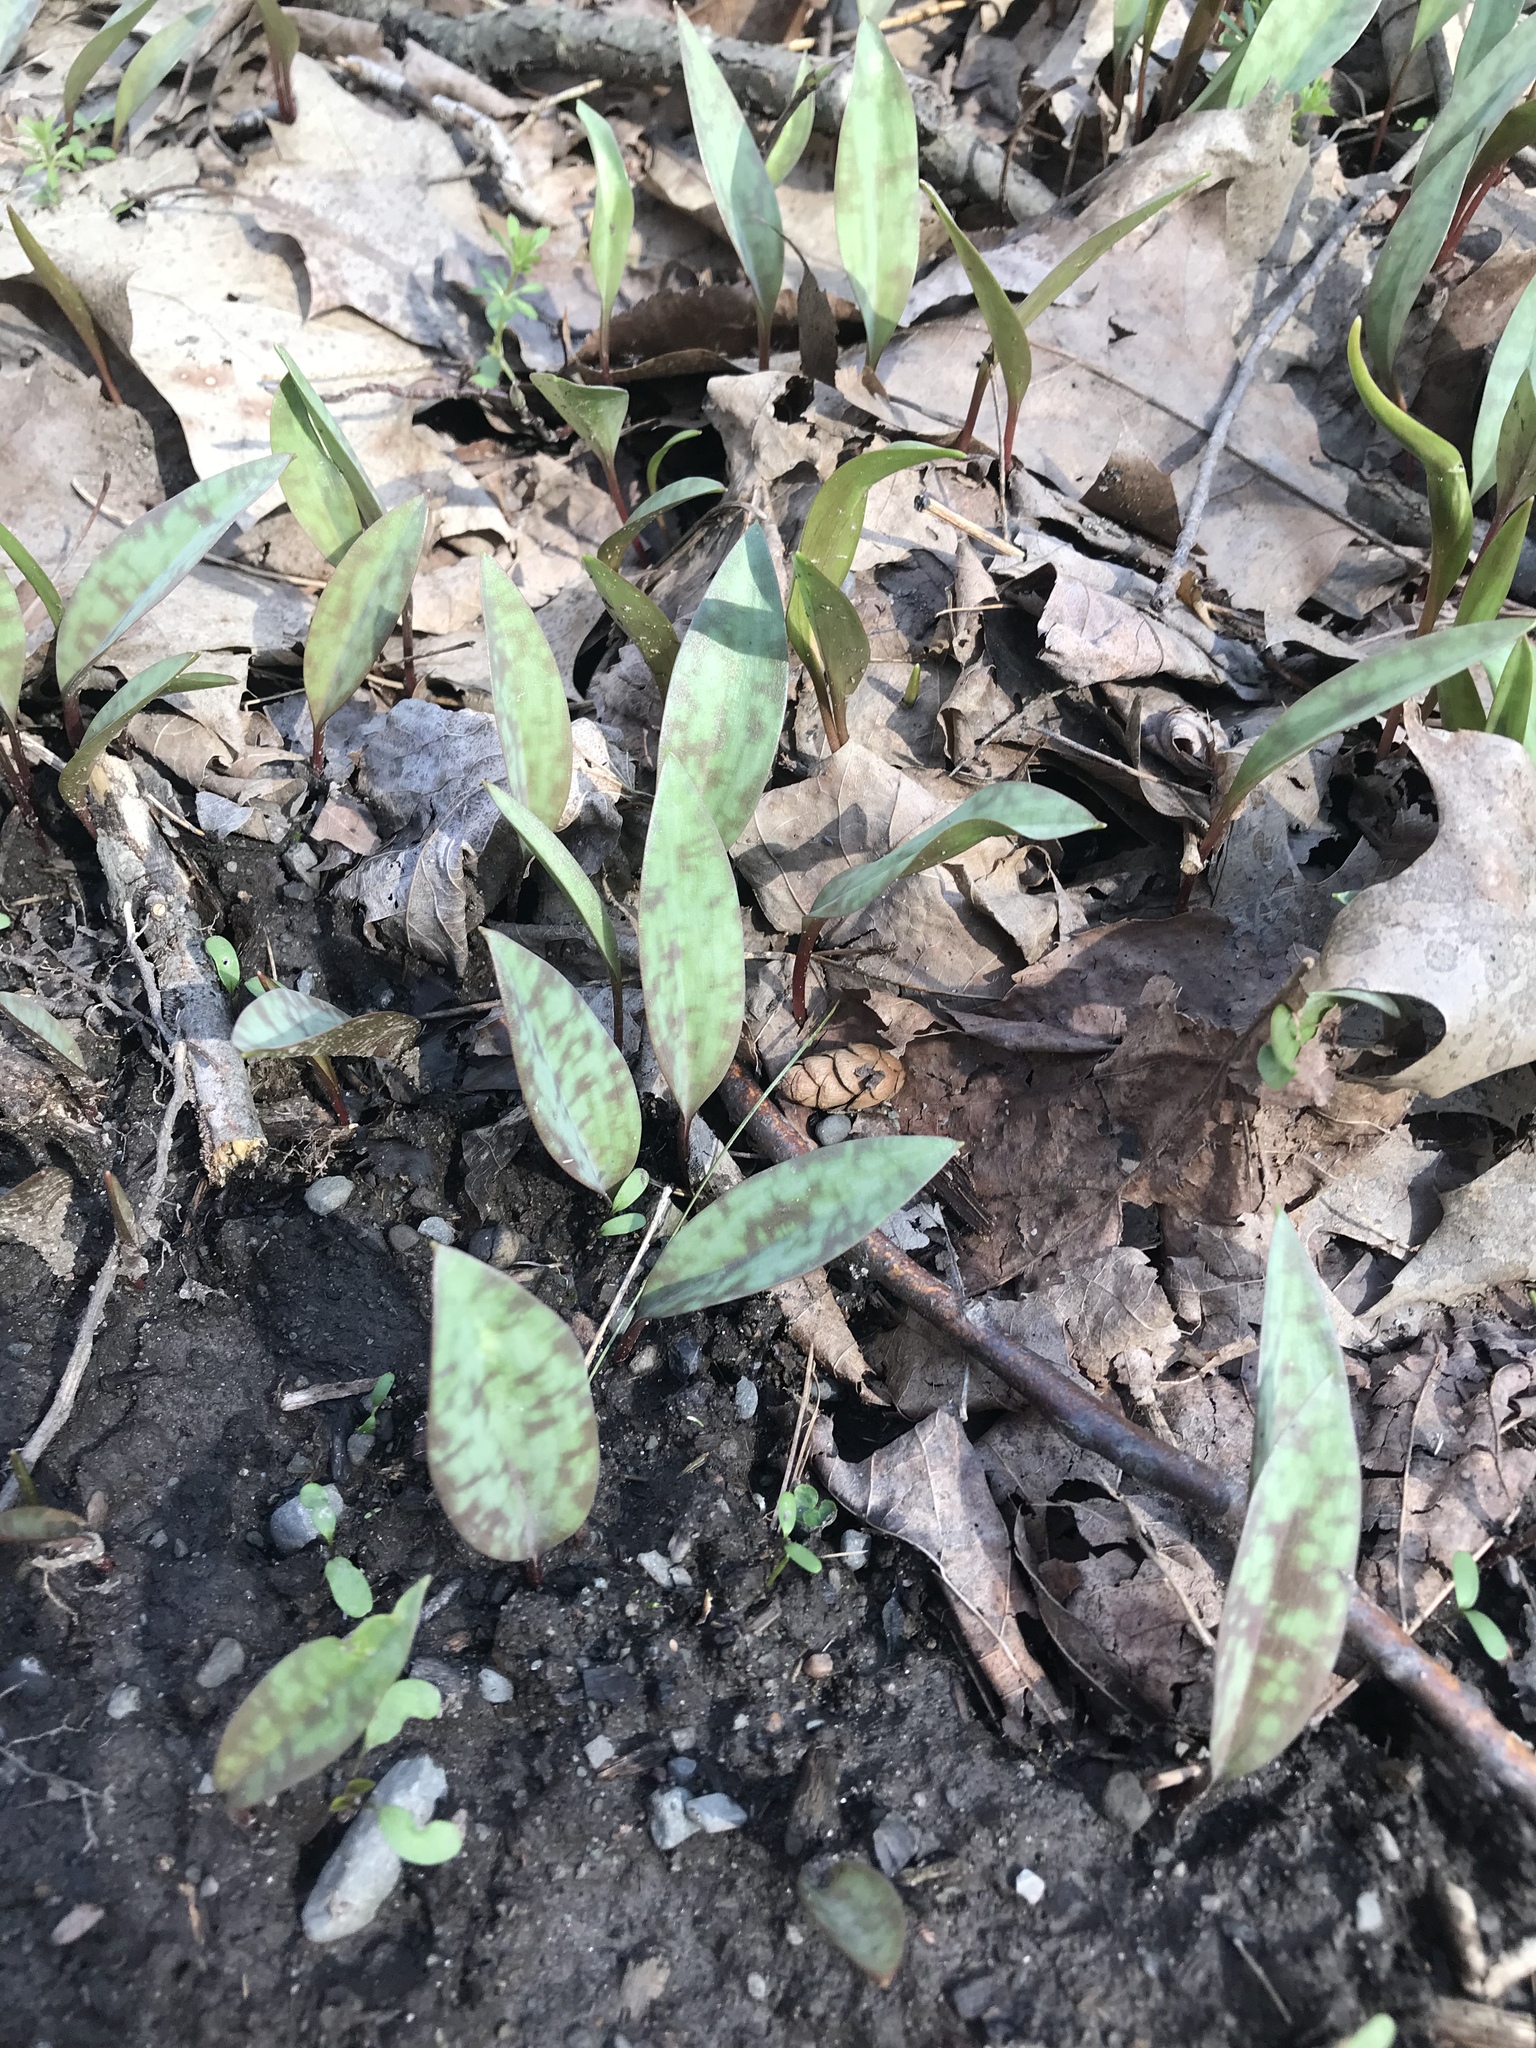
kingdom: Plantae
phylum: Tracheophyta
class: Liliopsida
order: Liliales
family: Liliaceae
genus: Erythronium
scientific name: Erythronium americanum
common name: Yellow adder's-tongue
